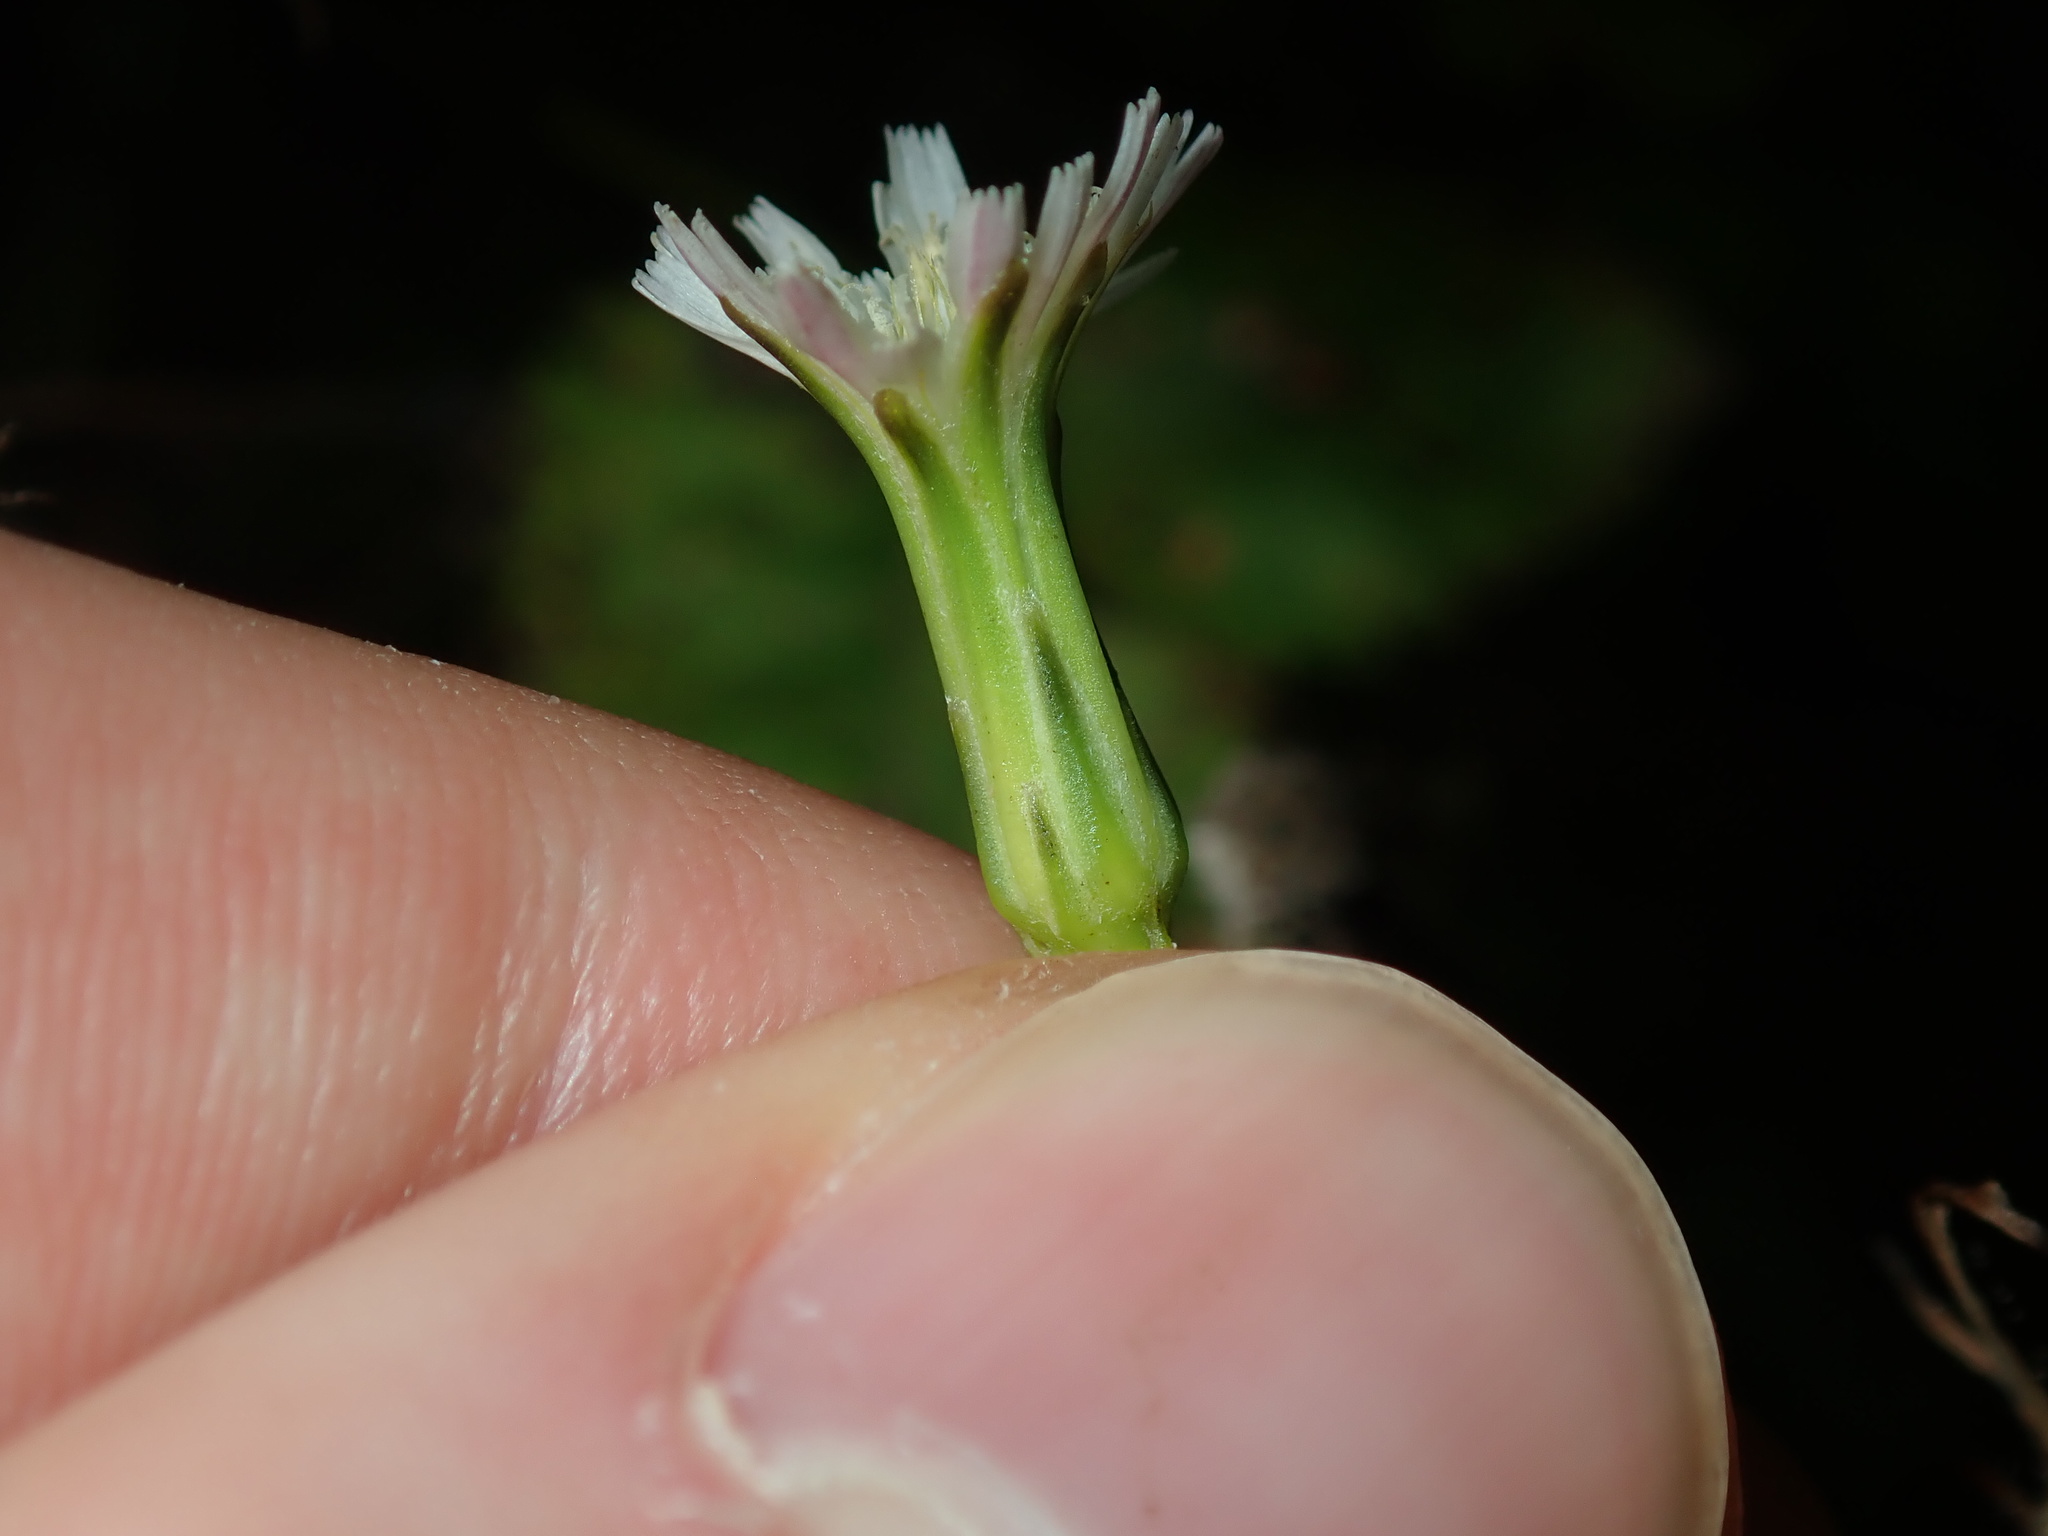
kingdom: Plantae
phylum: Tracheophyta
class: Magnoliopsida
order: Asterales
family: Asteraceae
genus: Hypochaeris
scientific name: Hypochaeris albiflora
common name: White flatweed
